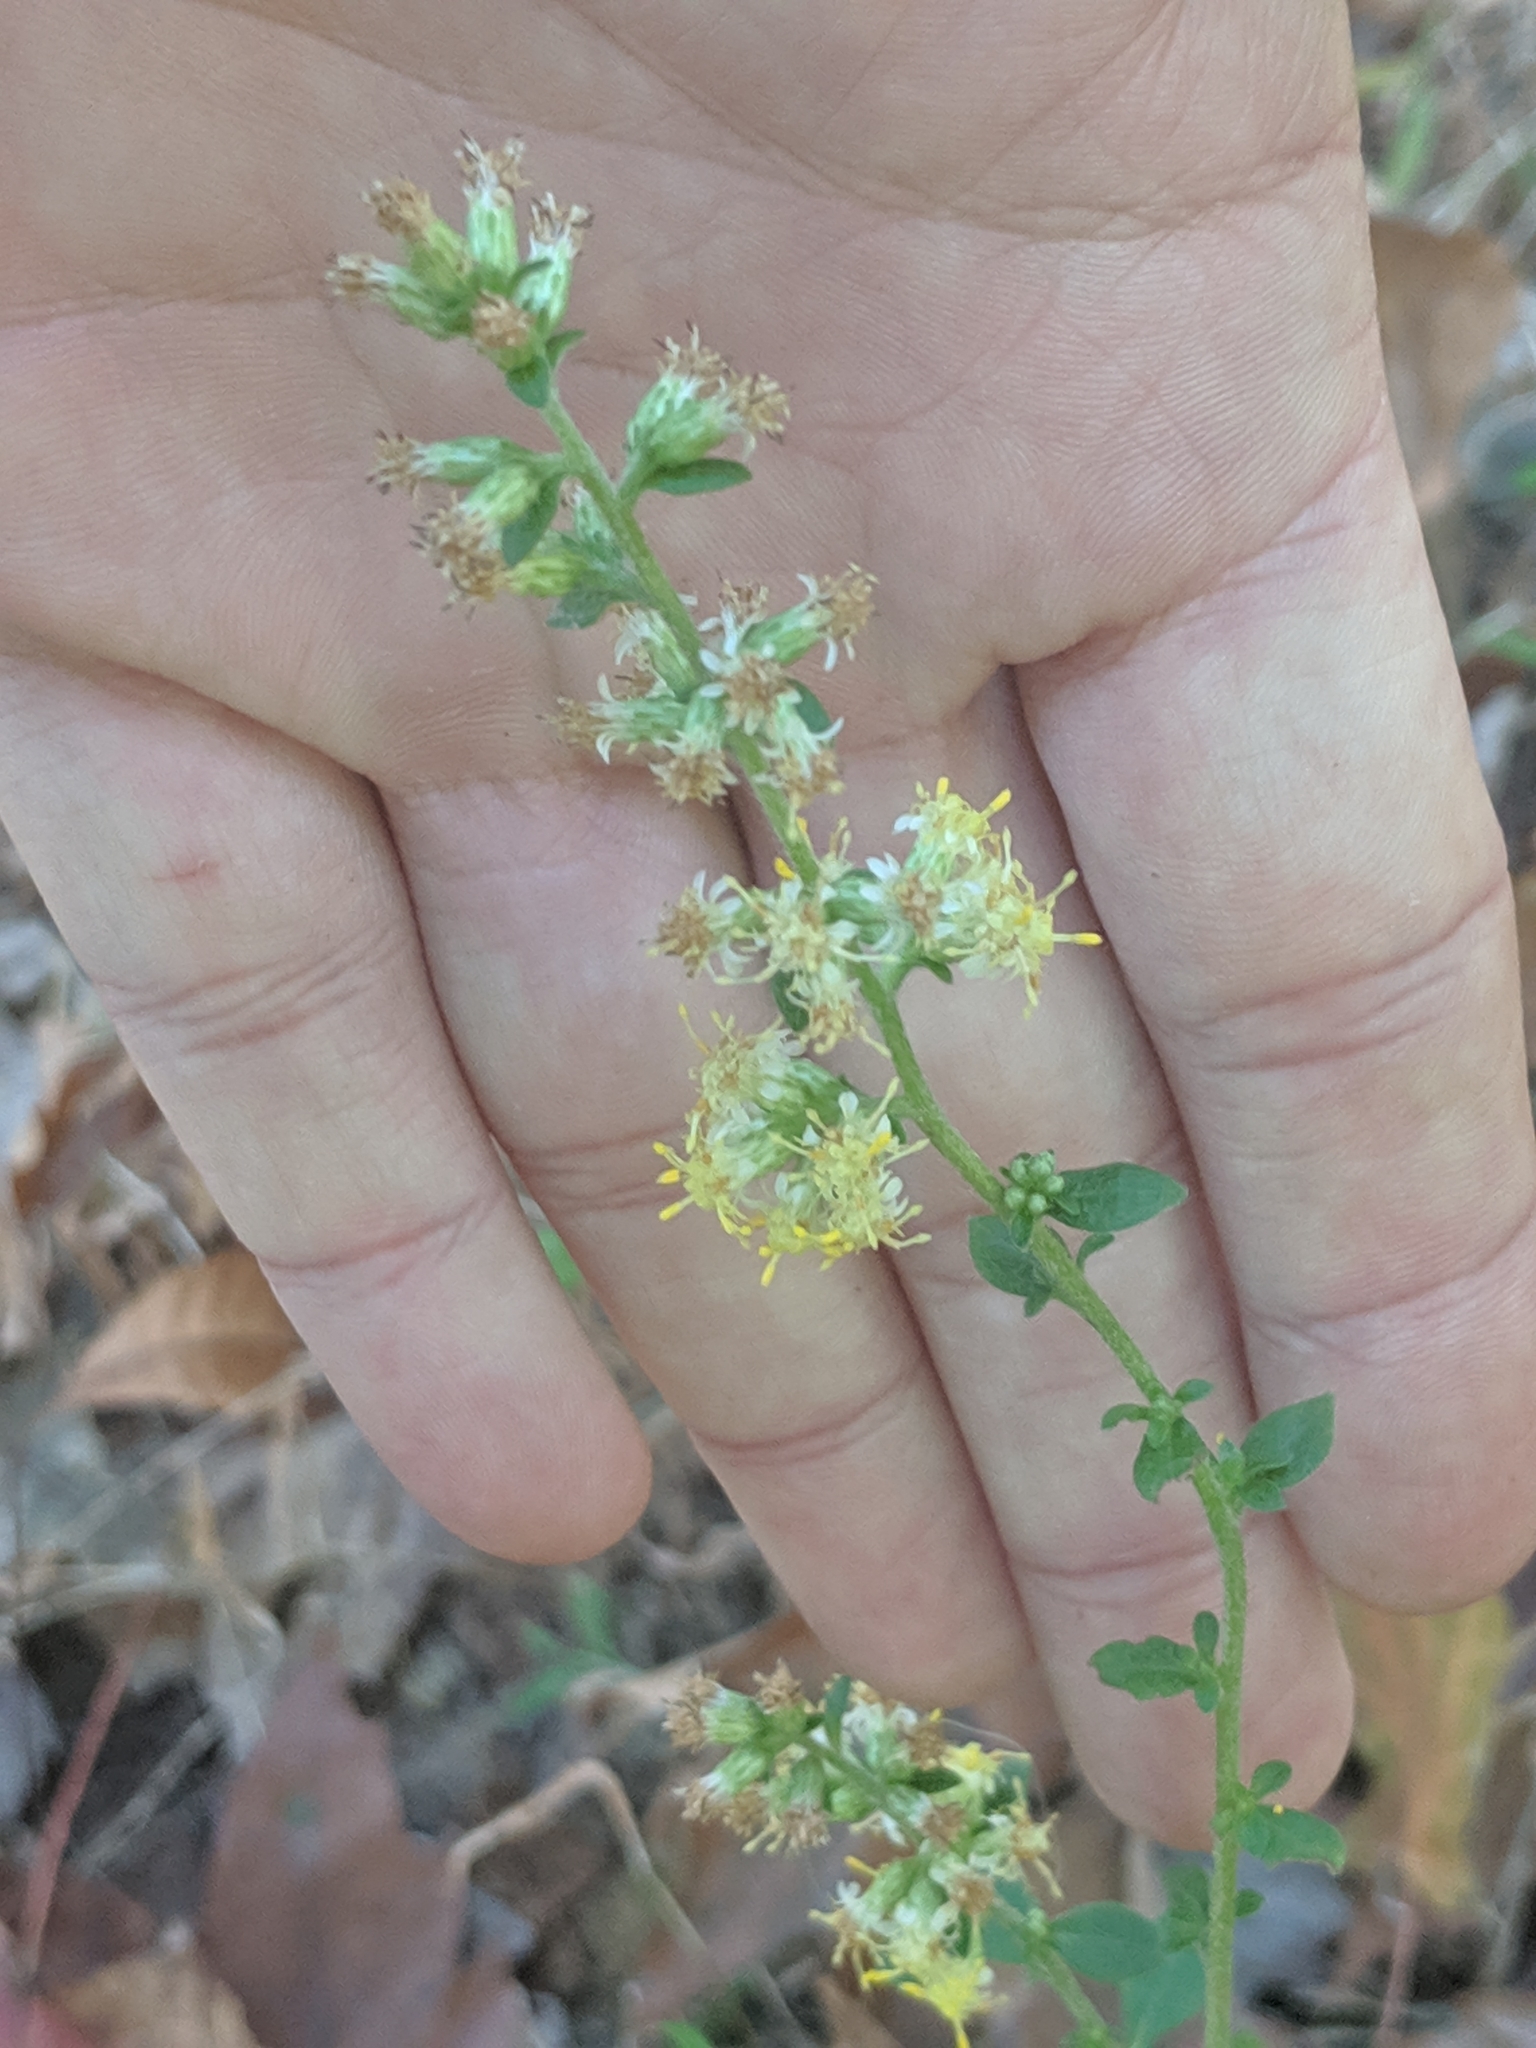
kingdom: Plantae
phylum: Tracheophyta
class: Magnoliopsida
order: Asterales
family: Asteraceae
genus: Solidago
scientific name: Solidago bicolor
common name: Silverrod
